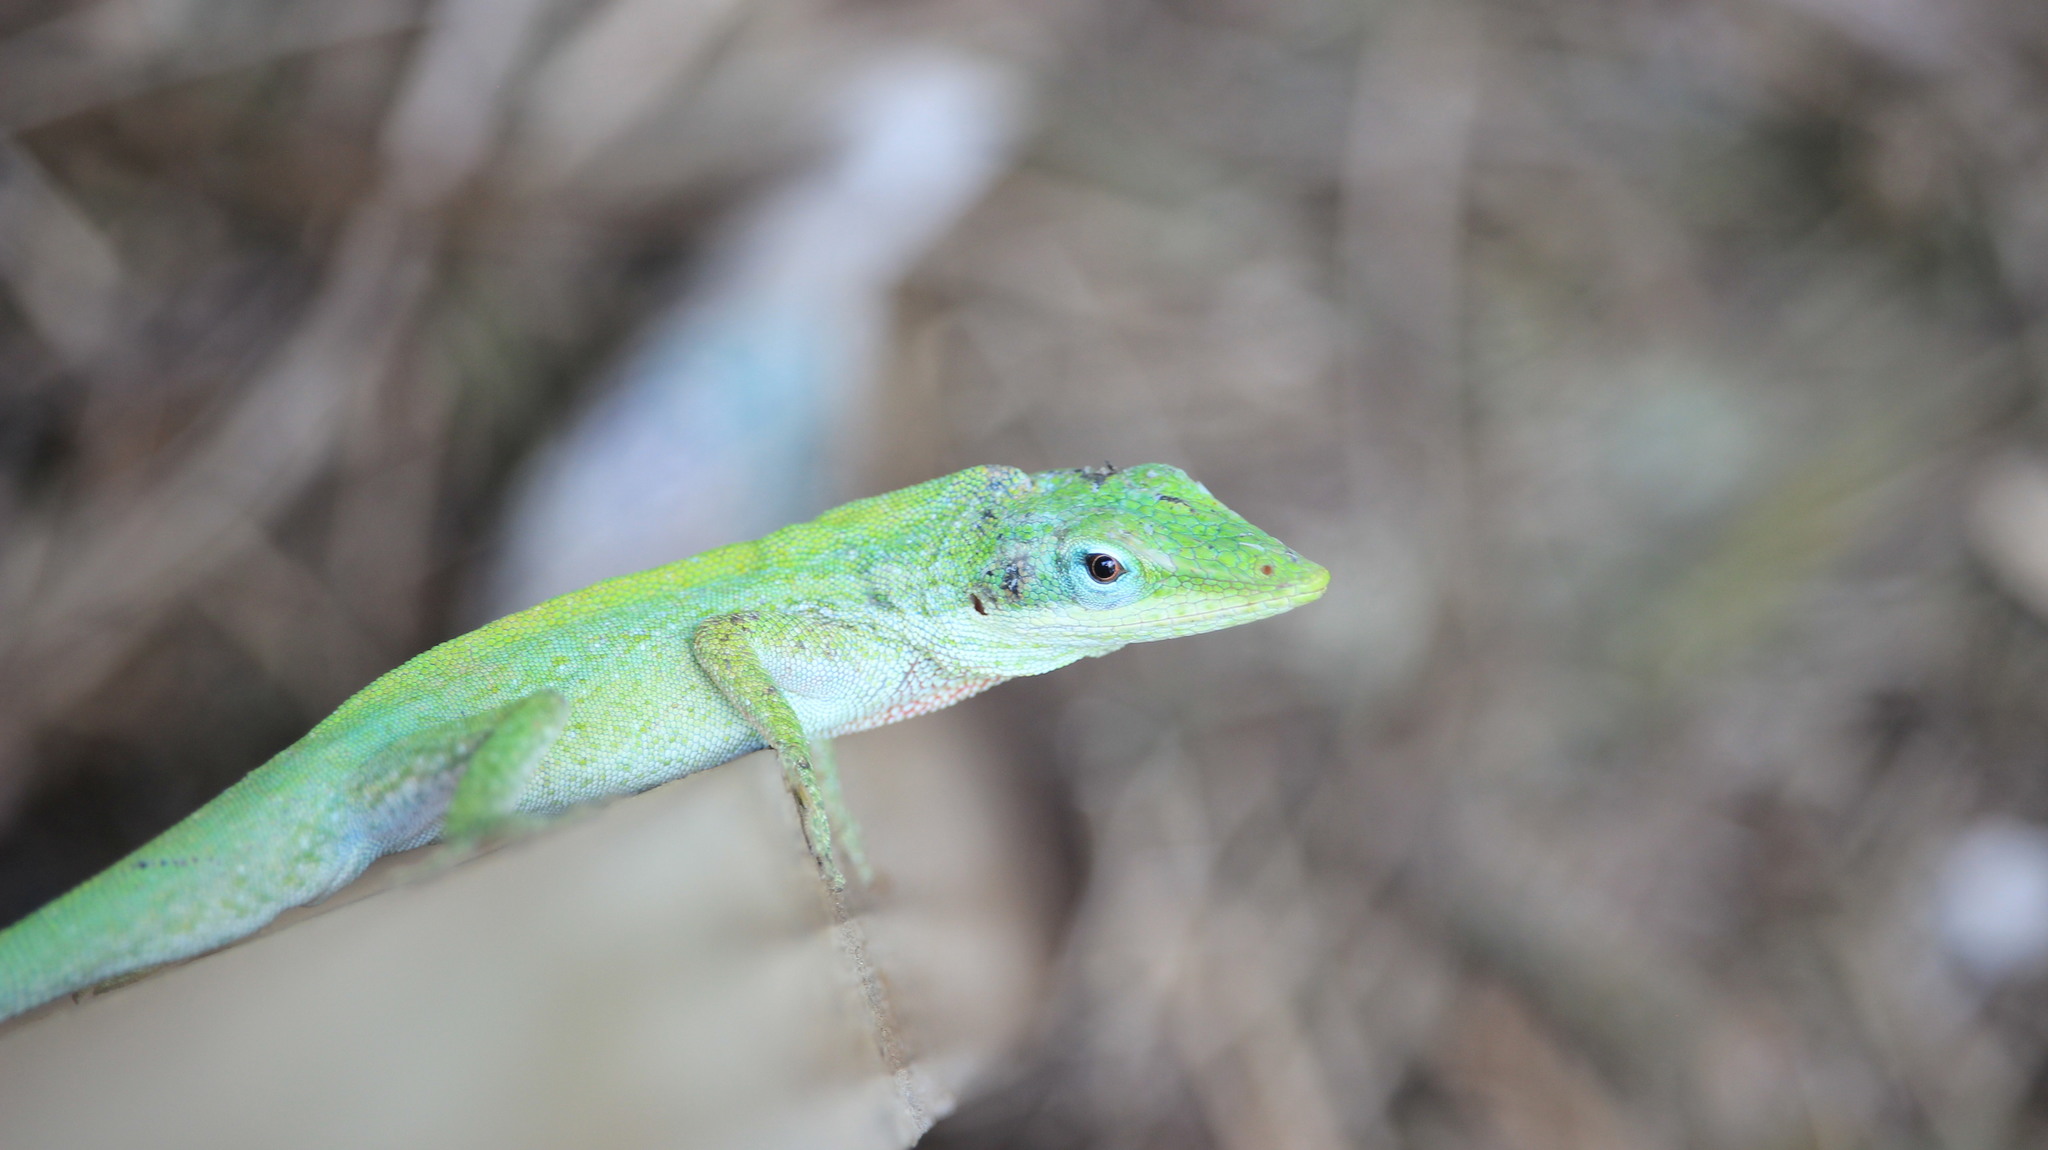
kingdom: Animalia
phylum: Chordata
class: Squamata
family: Dactyloidae
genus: Anolis
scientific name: Anolis carolinensis
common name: Green anole
